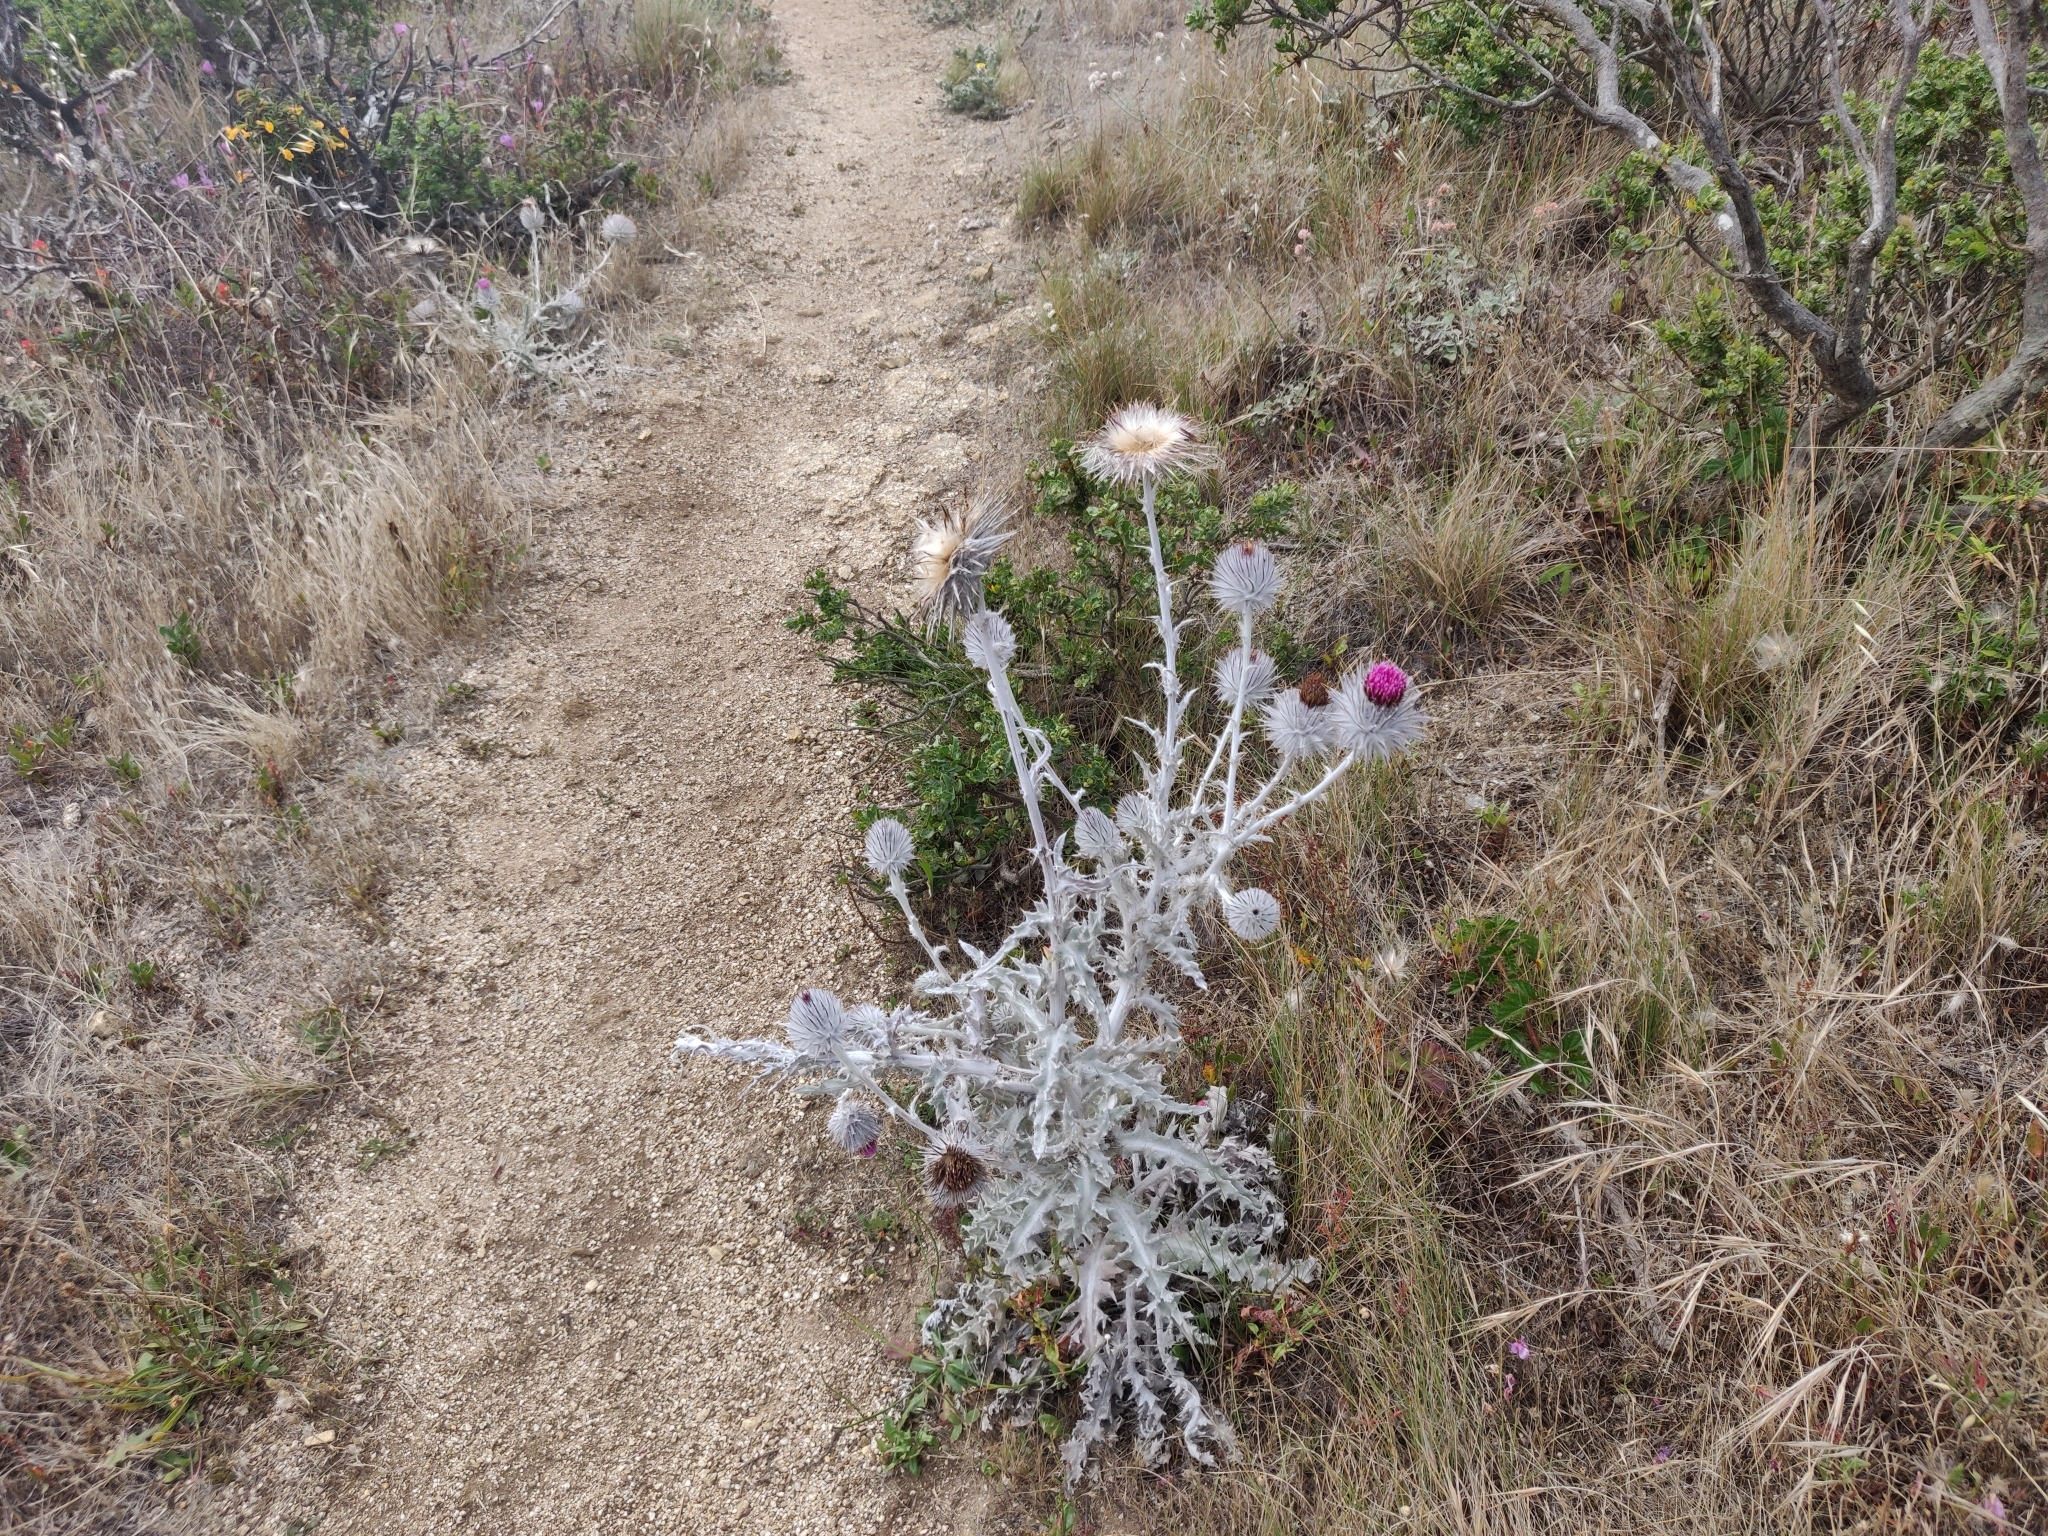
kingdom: Plantae
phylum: Tracheophyta
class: Magnoliopsida
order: Asterales
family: Asteraceae
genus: Cirsium
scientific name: Cirsium occidentale
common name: Western thistle
